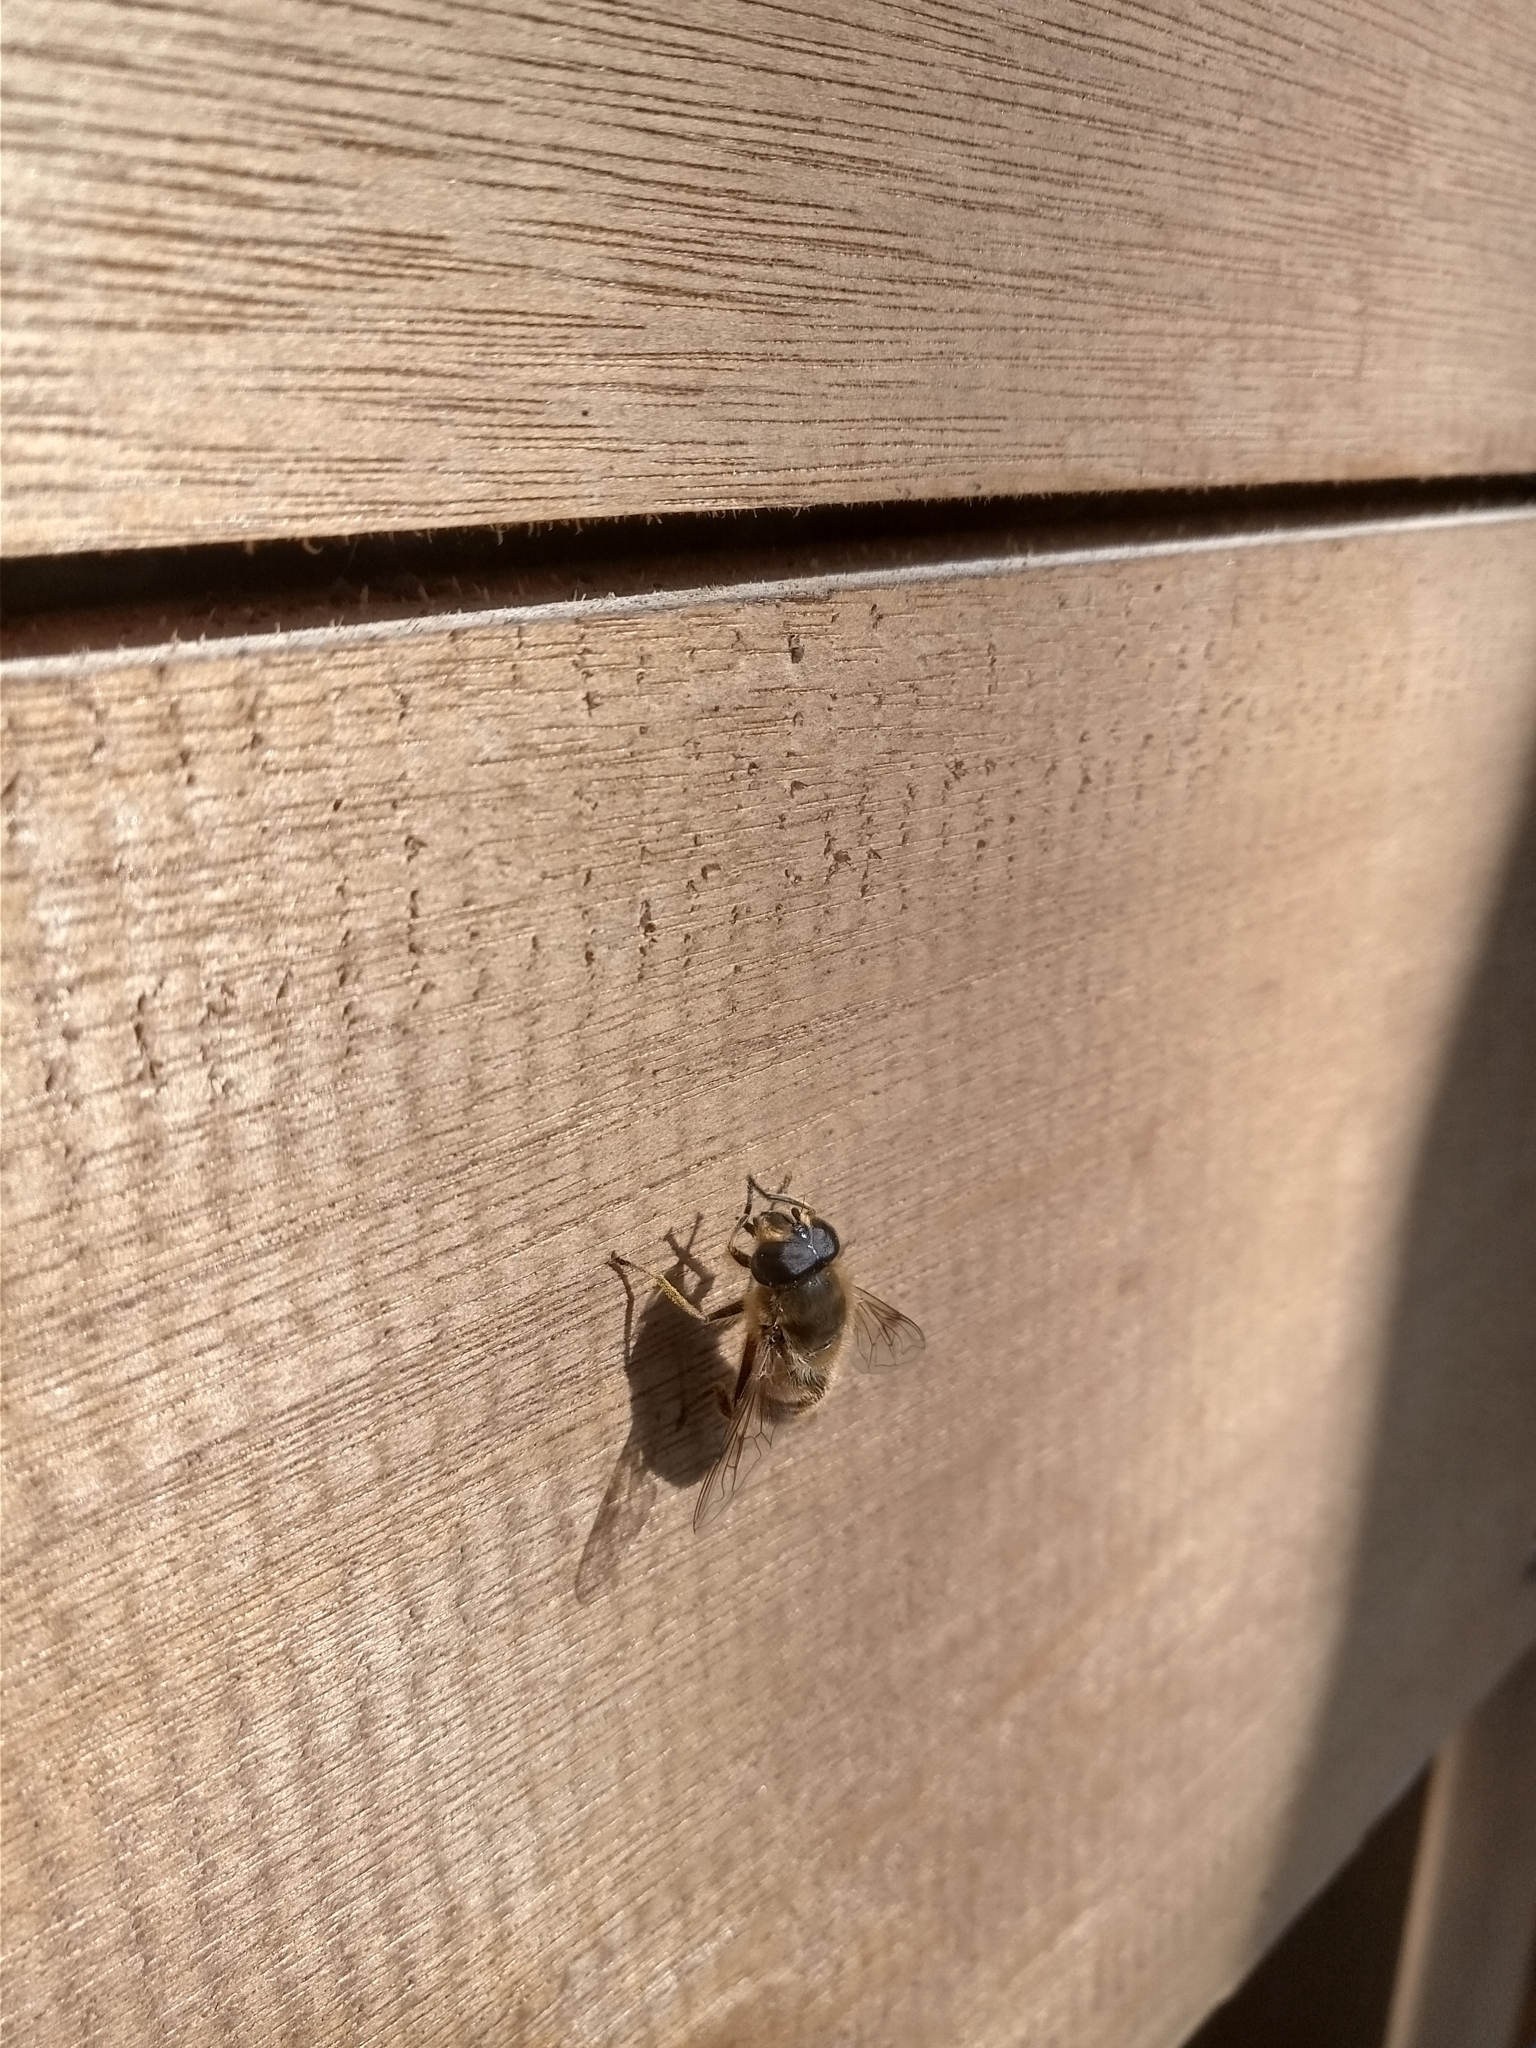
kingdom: Animalia
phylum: Arthropoda
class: Insecta
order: Diptera
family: Syrphidae
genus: Eristalis
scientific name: Eristalis tenax
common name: Drone fly
